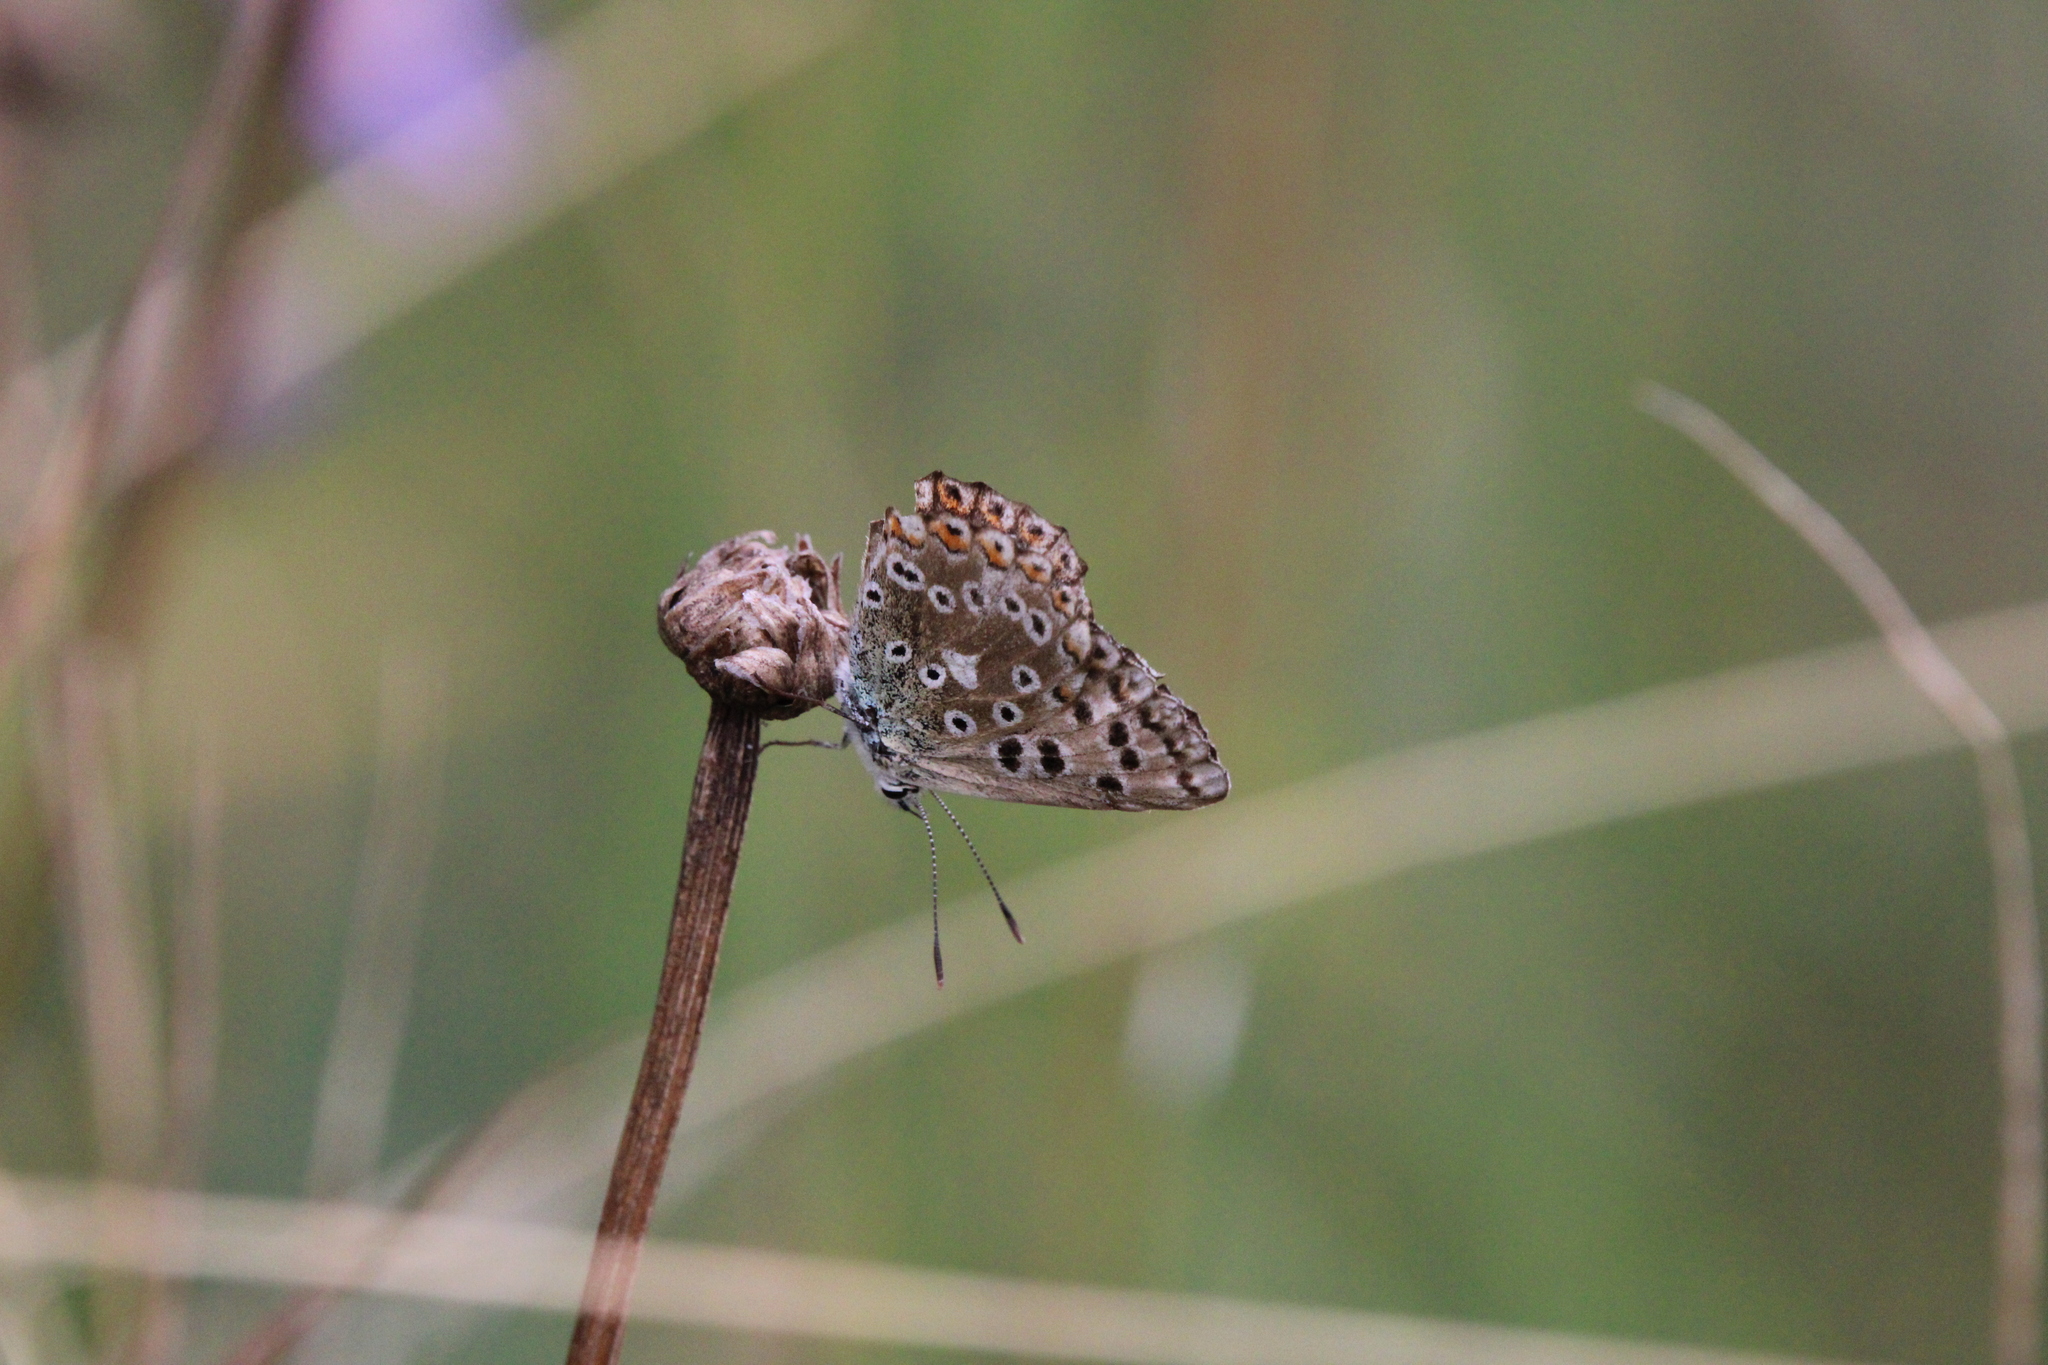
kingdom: Animalia
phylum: Arthropoda
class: Insecta
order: Lepidoptera
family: Lycaenidae
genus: Lysandra
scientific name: Lysandra coridon
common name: Chalkhill blue
